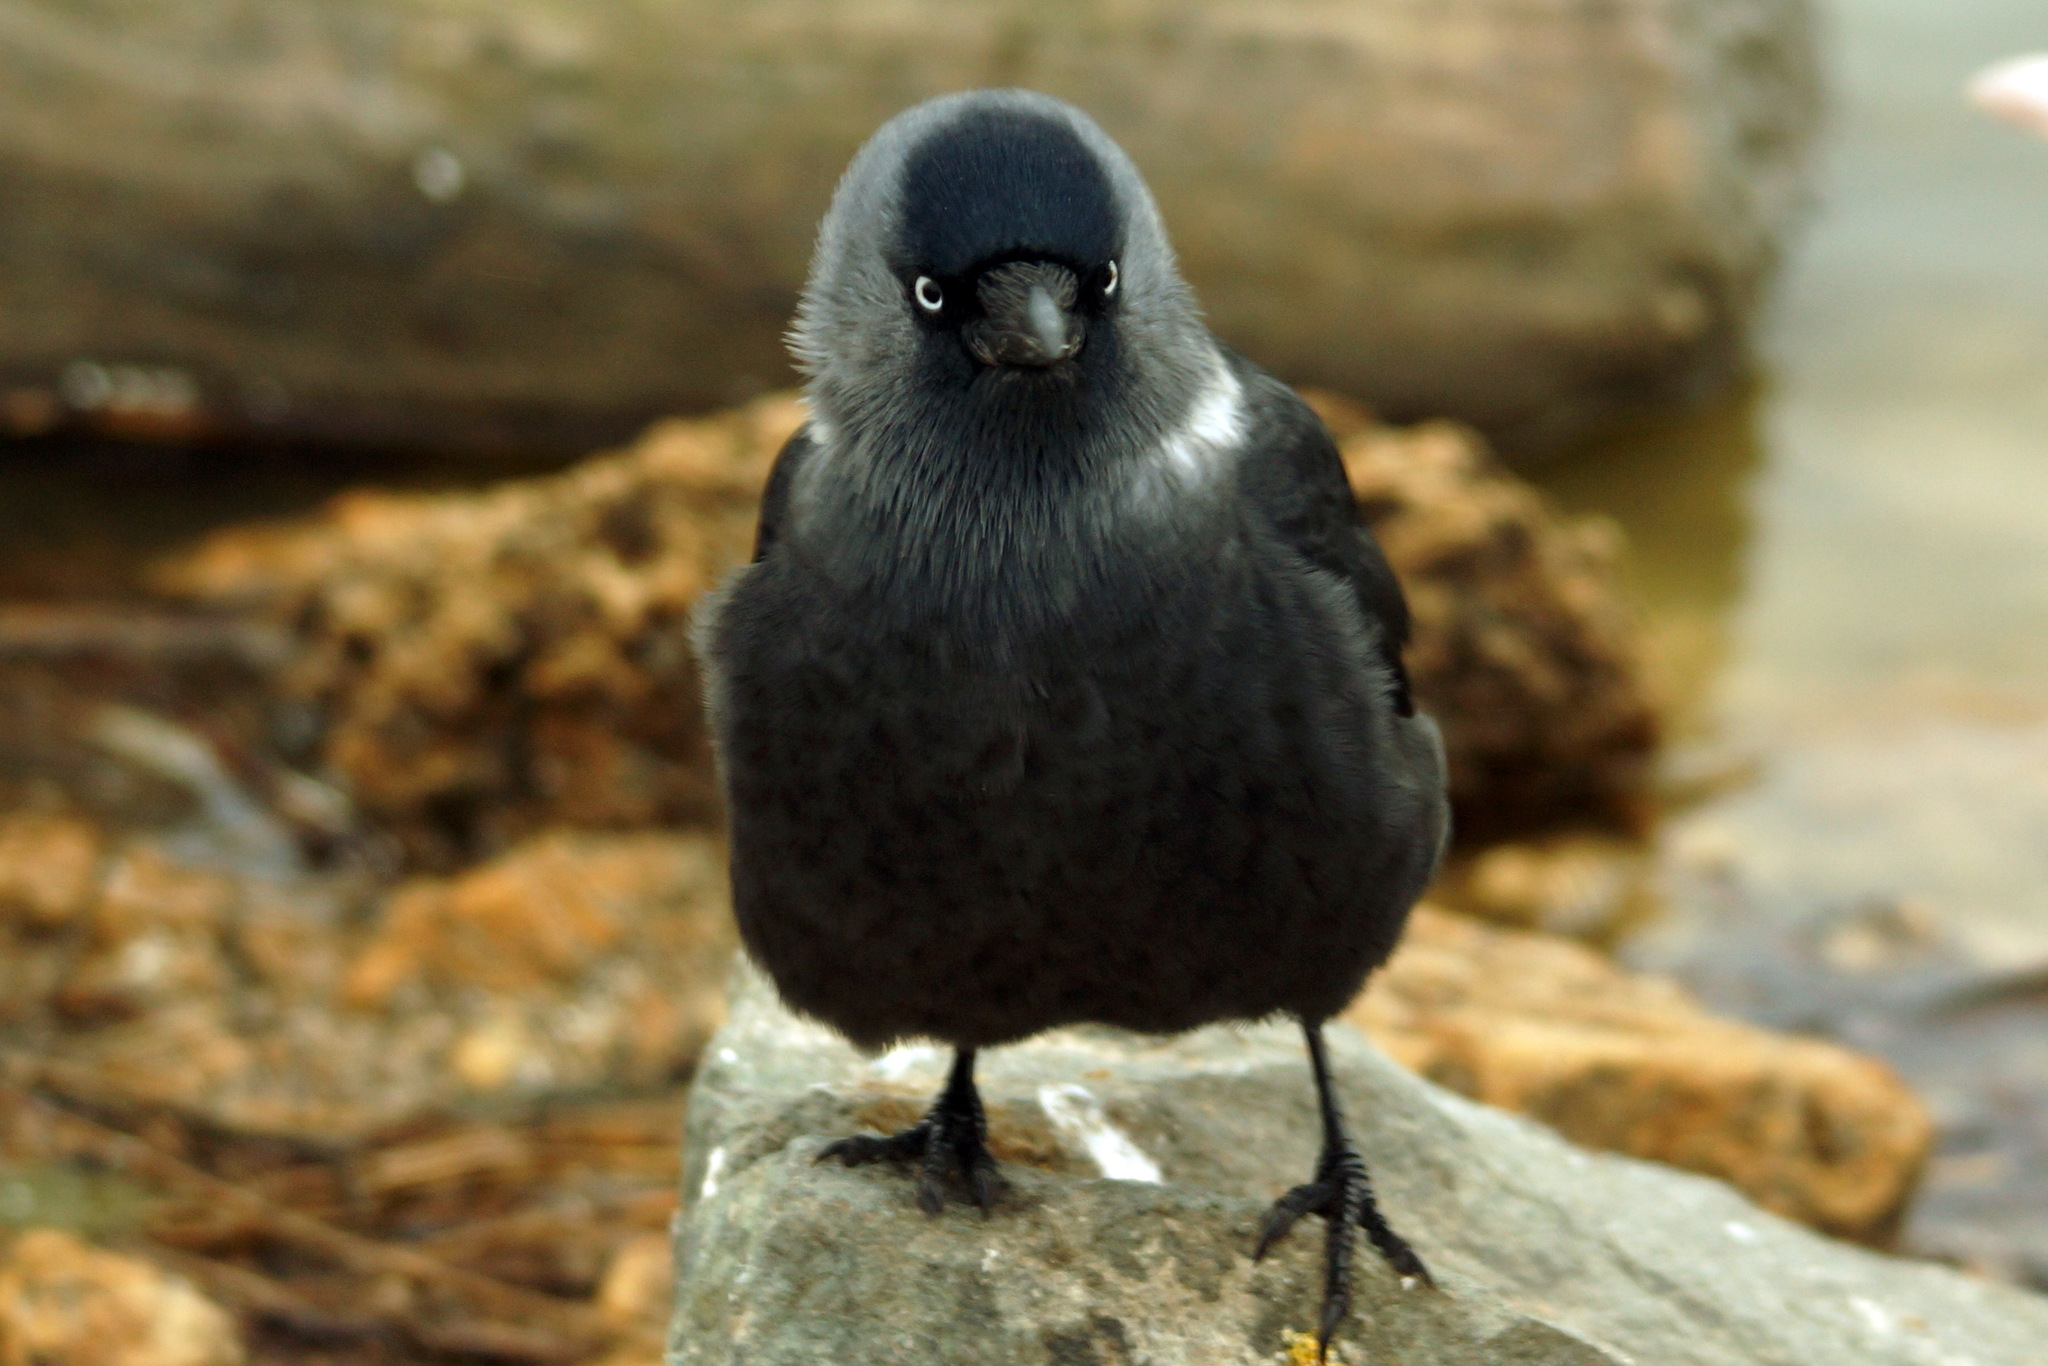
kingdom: Animalia
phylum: Chordata
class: Aves
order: Passeriformes
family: Corvidae
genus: Coloeus
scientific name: Coloeus monedula
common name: Western jackdaw
